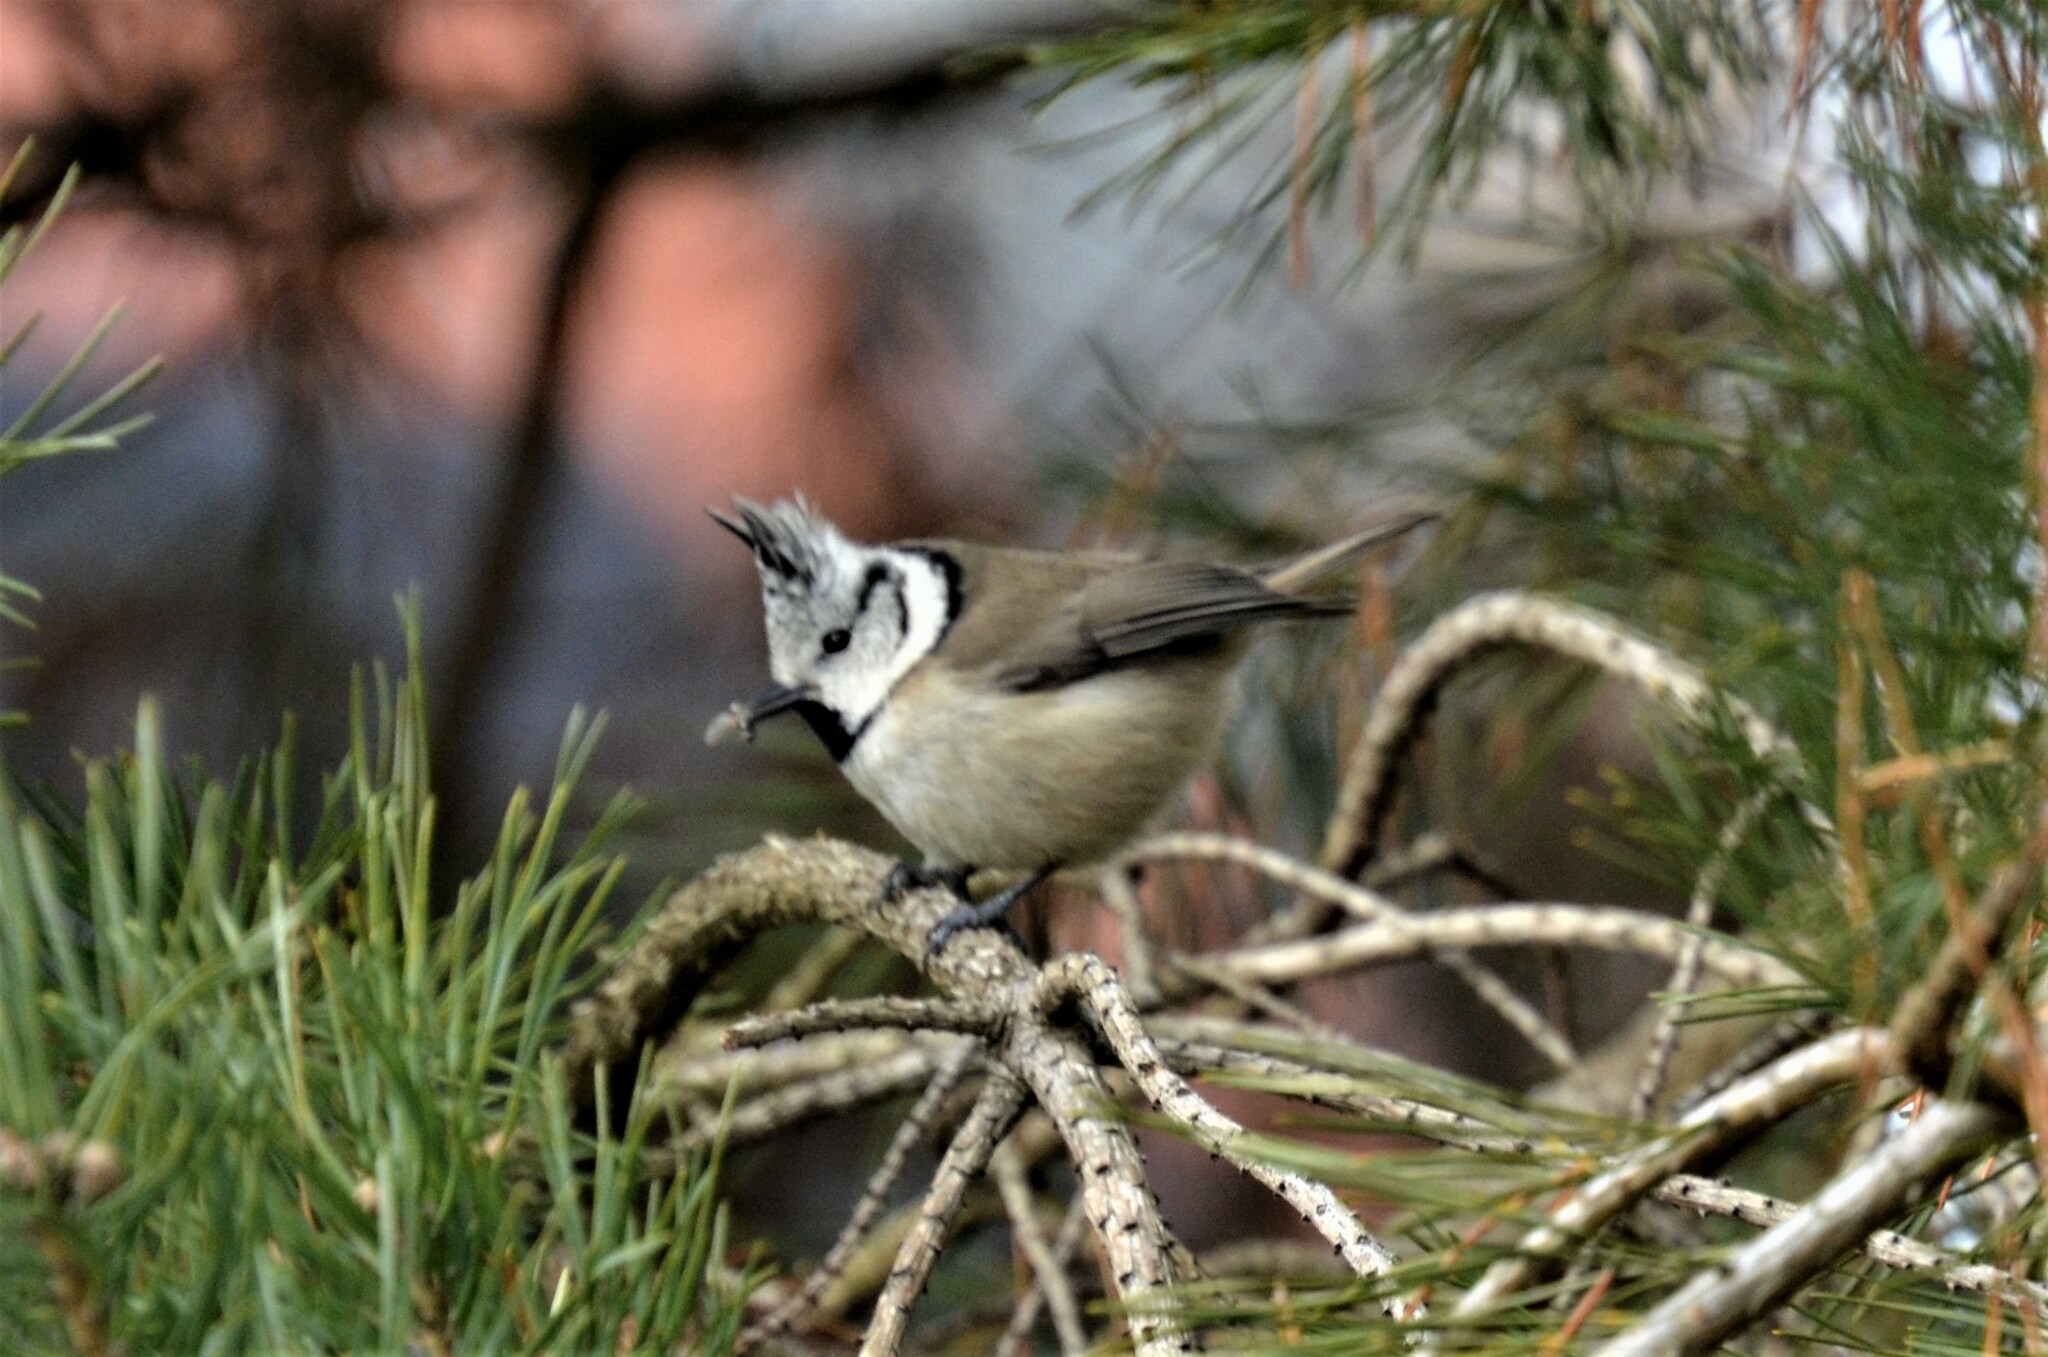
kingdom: Animalia
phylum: Chordata
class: Aves
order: Passeriformes
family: Paridae
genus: Lophophanes
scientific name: Lophophanes cristatus
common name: European crested tit
